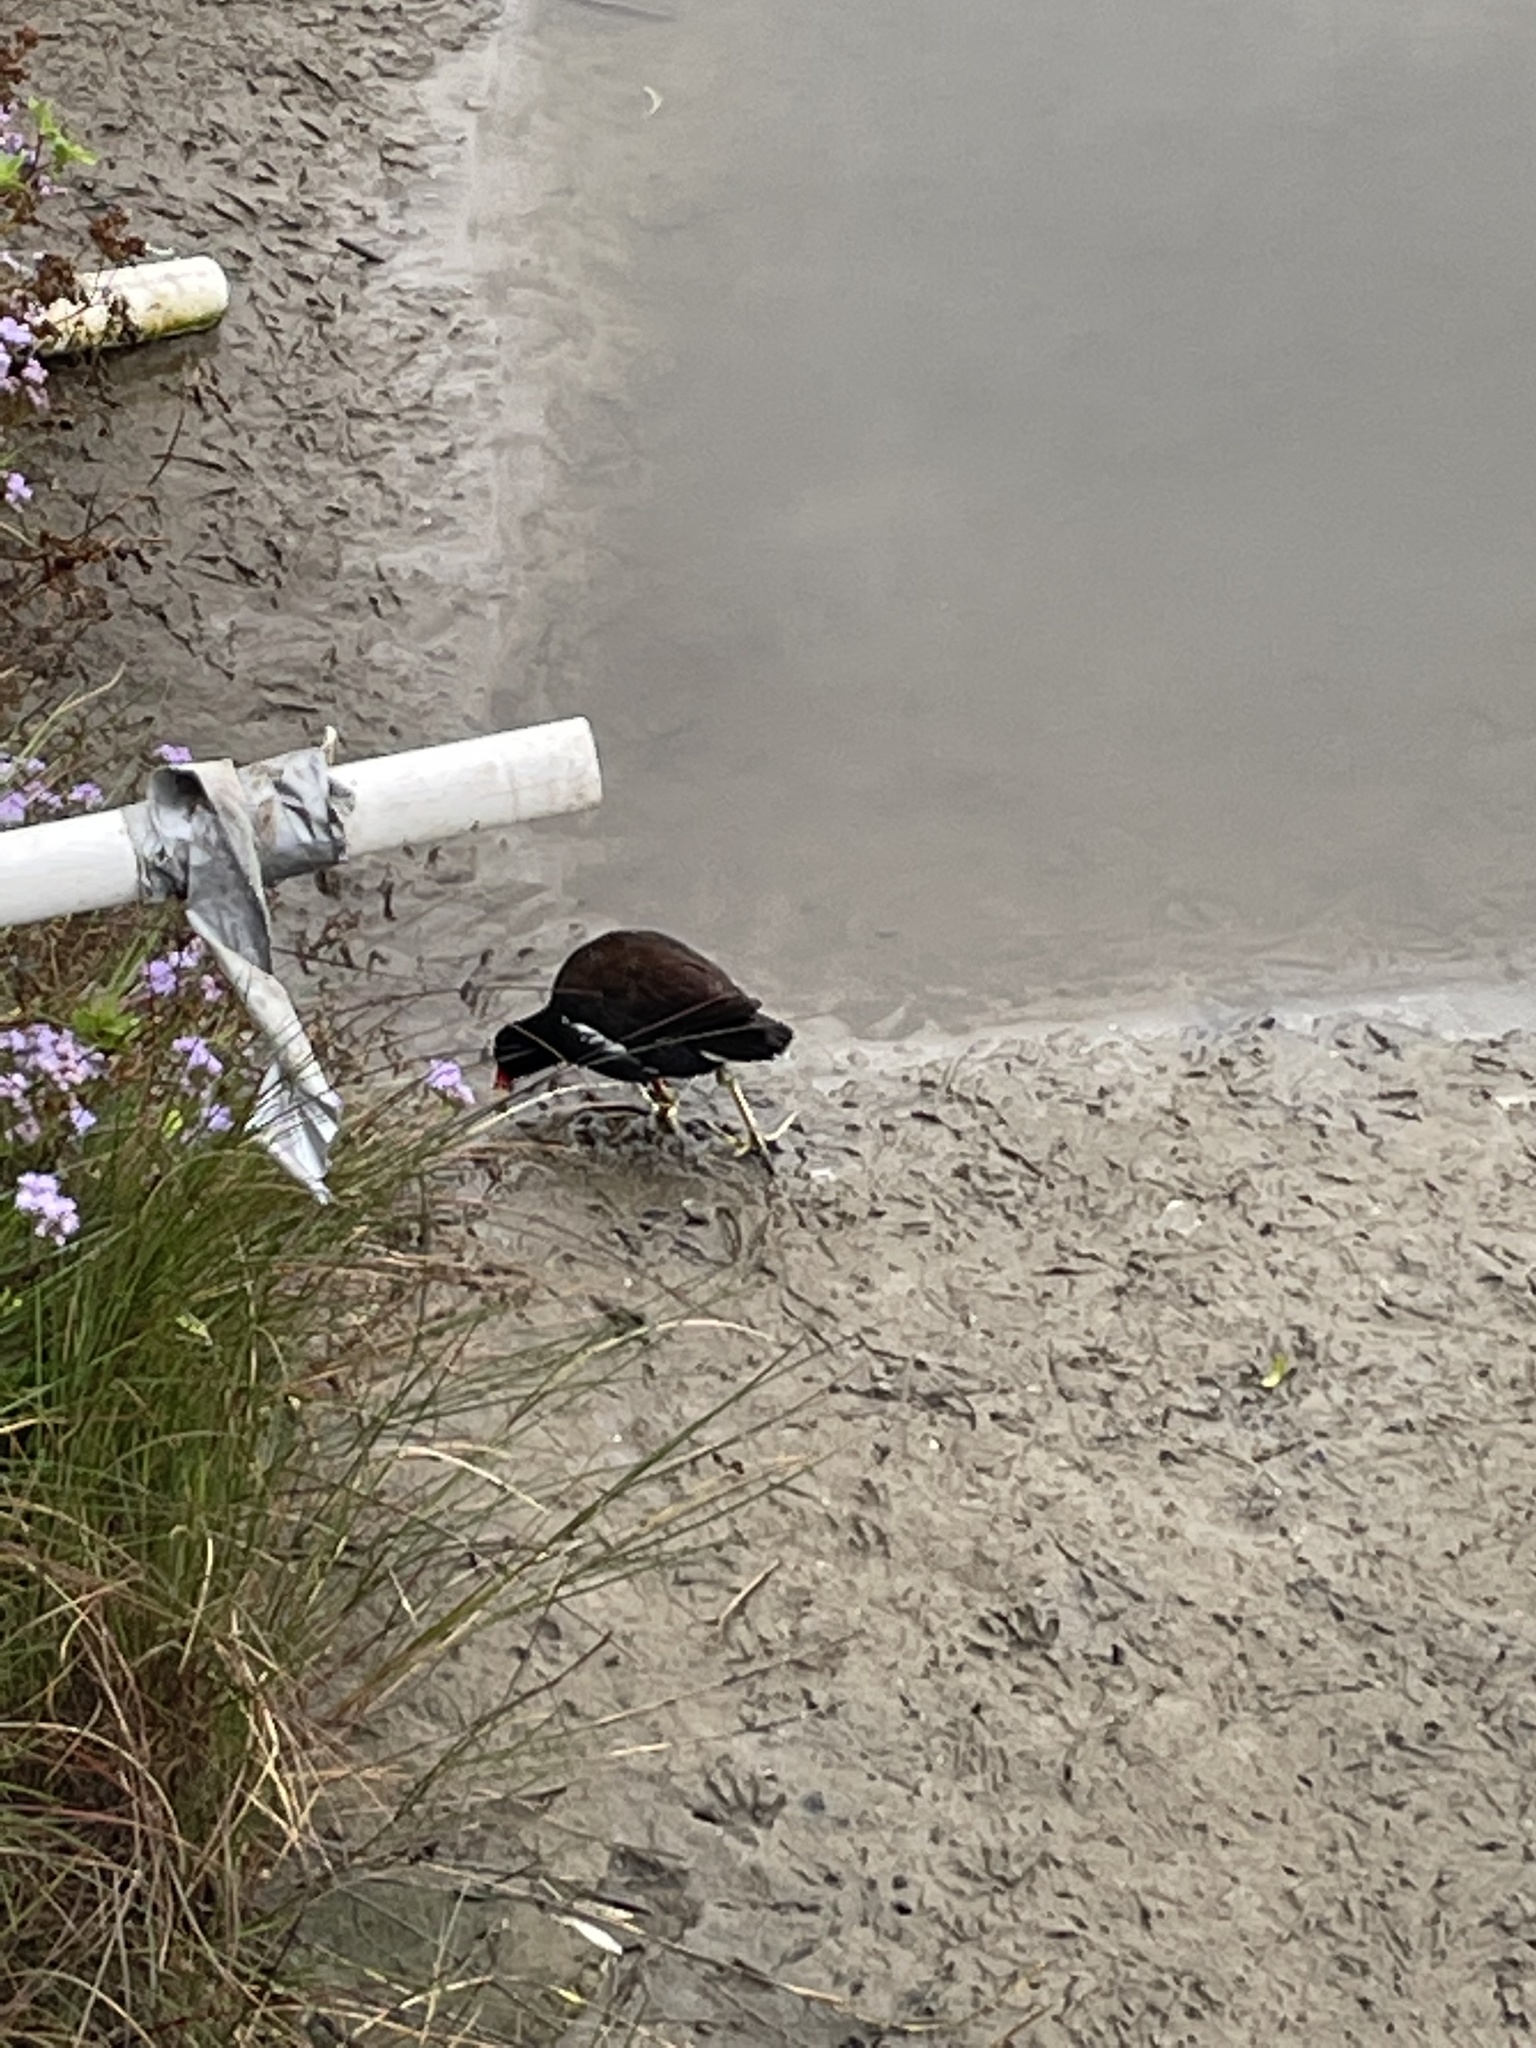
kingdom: Animalia
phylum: Chordata
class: Aves
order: Gruiformes
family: Rallidae
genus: Gallinula
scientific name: Gallinula chloropus
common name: Common moorhen
